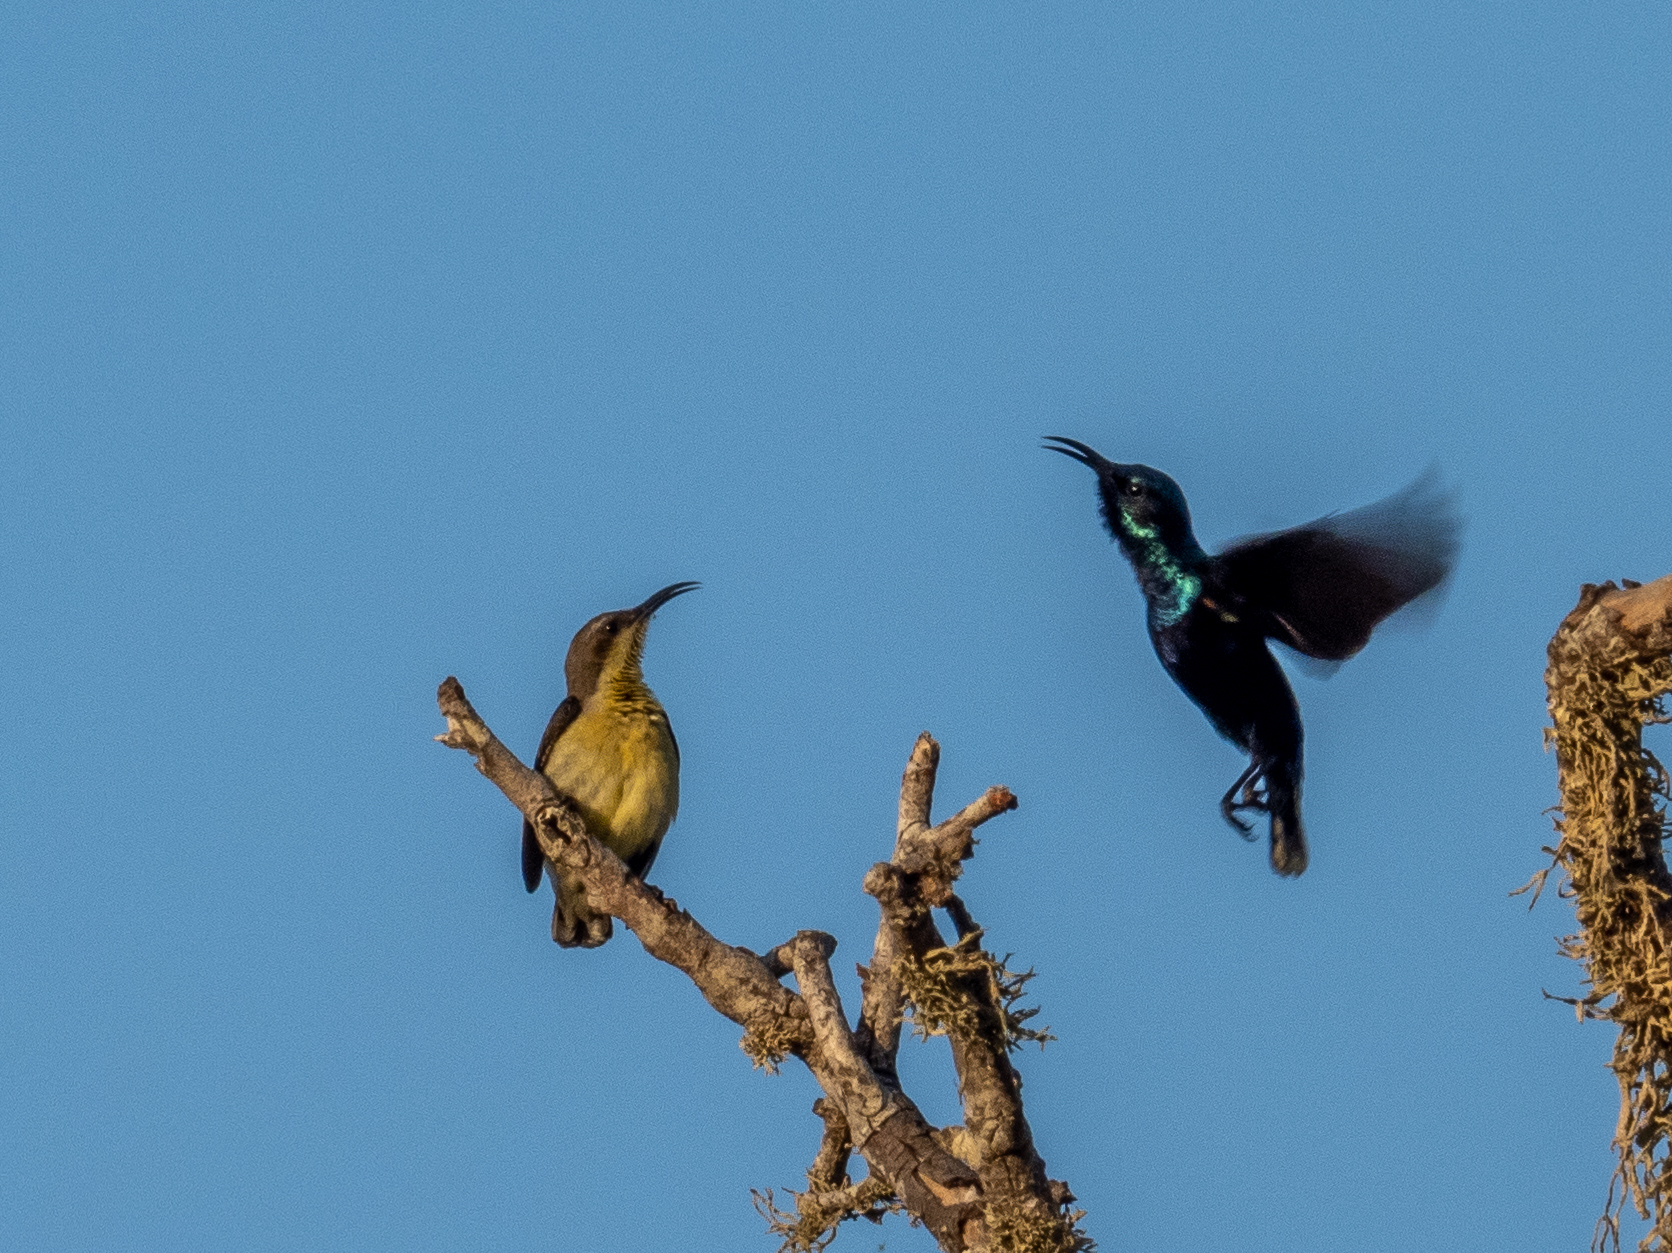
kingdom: Animalia
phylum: Chordata
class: Aves
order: Passeriformes
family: Nectariniidae
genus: Cinnyris
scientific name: Cinnyris asiaticus
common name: Purple sunbird
